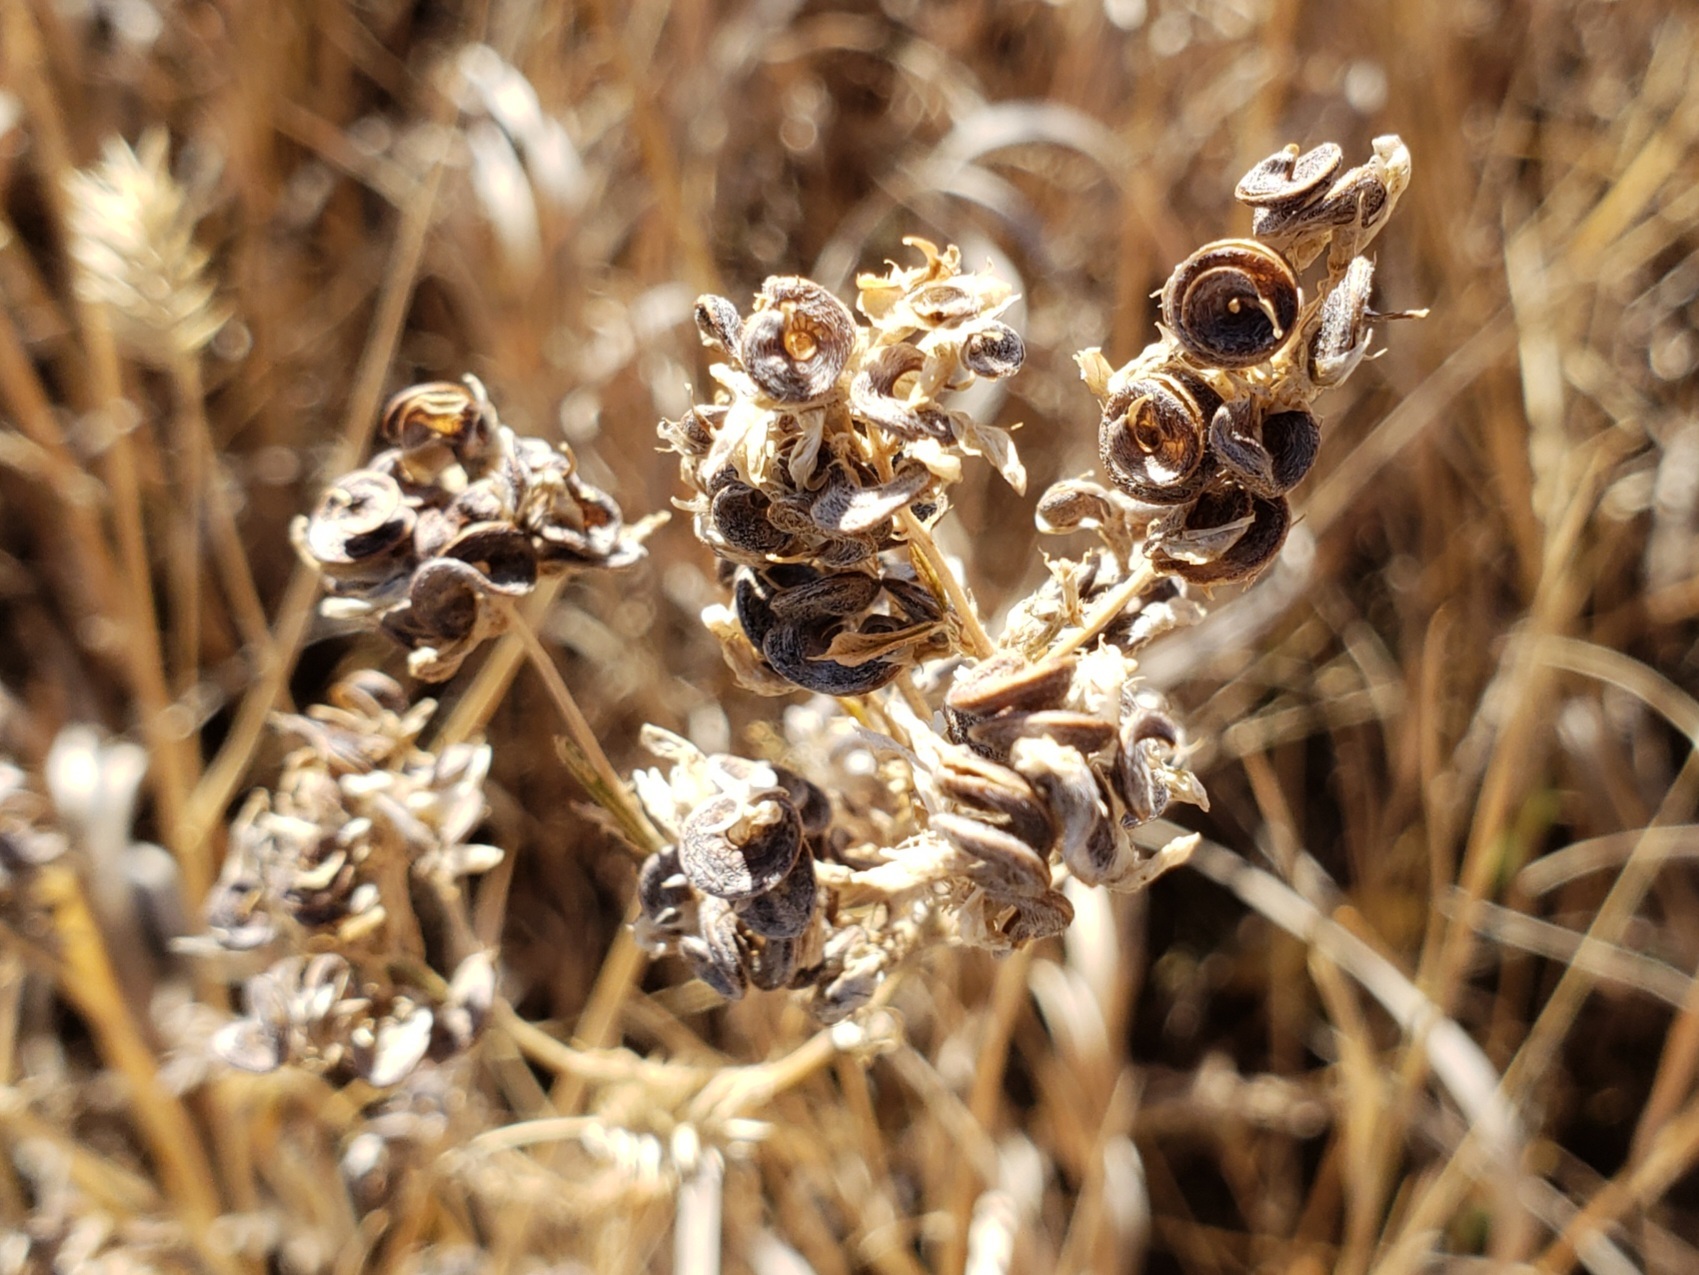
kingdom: Plantae
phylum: Tracheophyta
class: Magnoliopsida
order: Fabales
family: Fabaceae
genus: Medicago
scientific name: Medicago sativa
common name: Alfalfa
